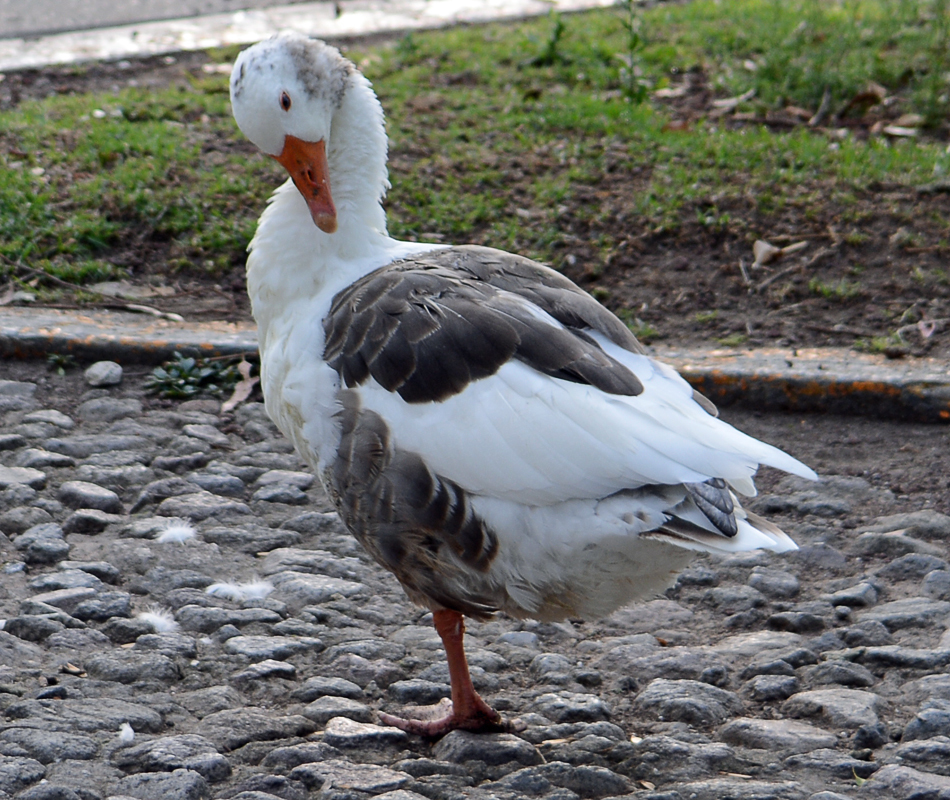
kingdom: Animalia
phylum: Chordata
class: Aves
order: Anseriformes
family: Anatidae
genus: Anser
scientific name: Anser anser
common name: Greylag goose
